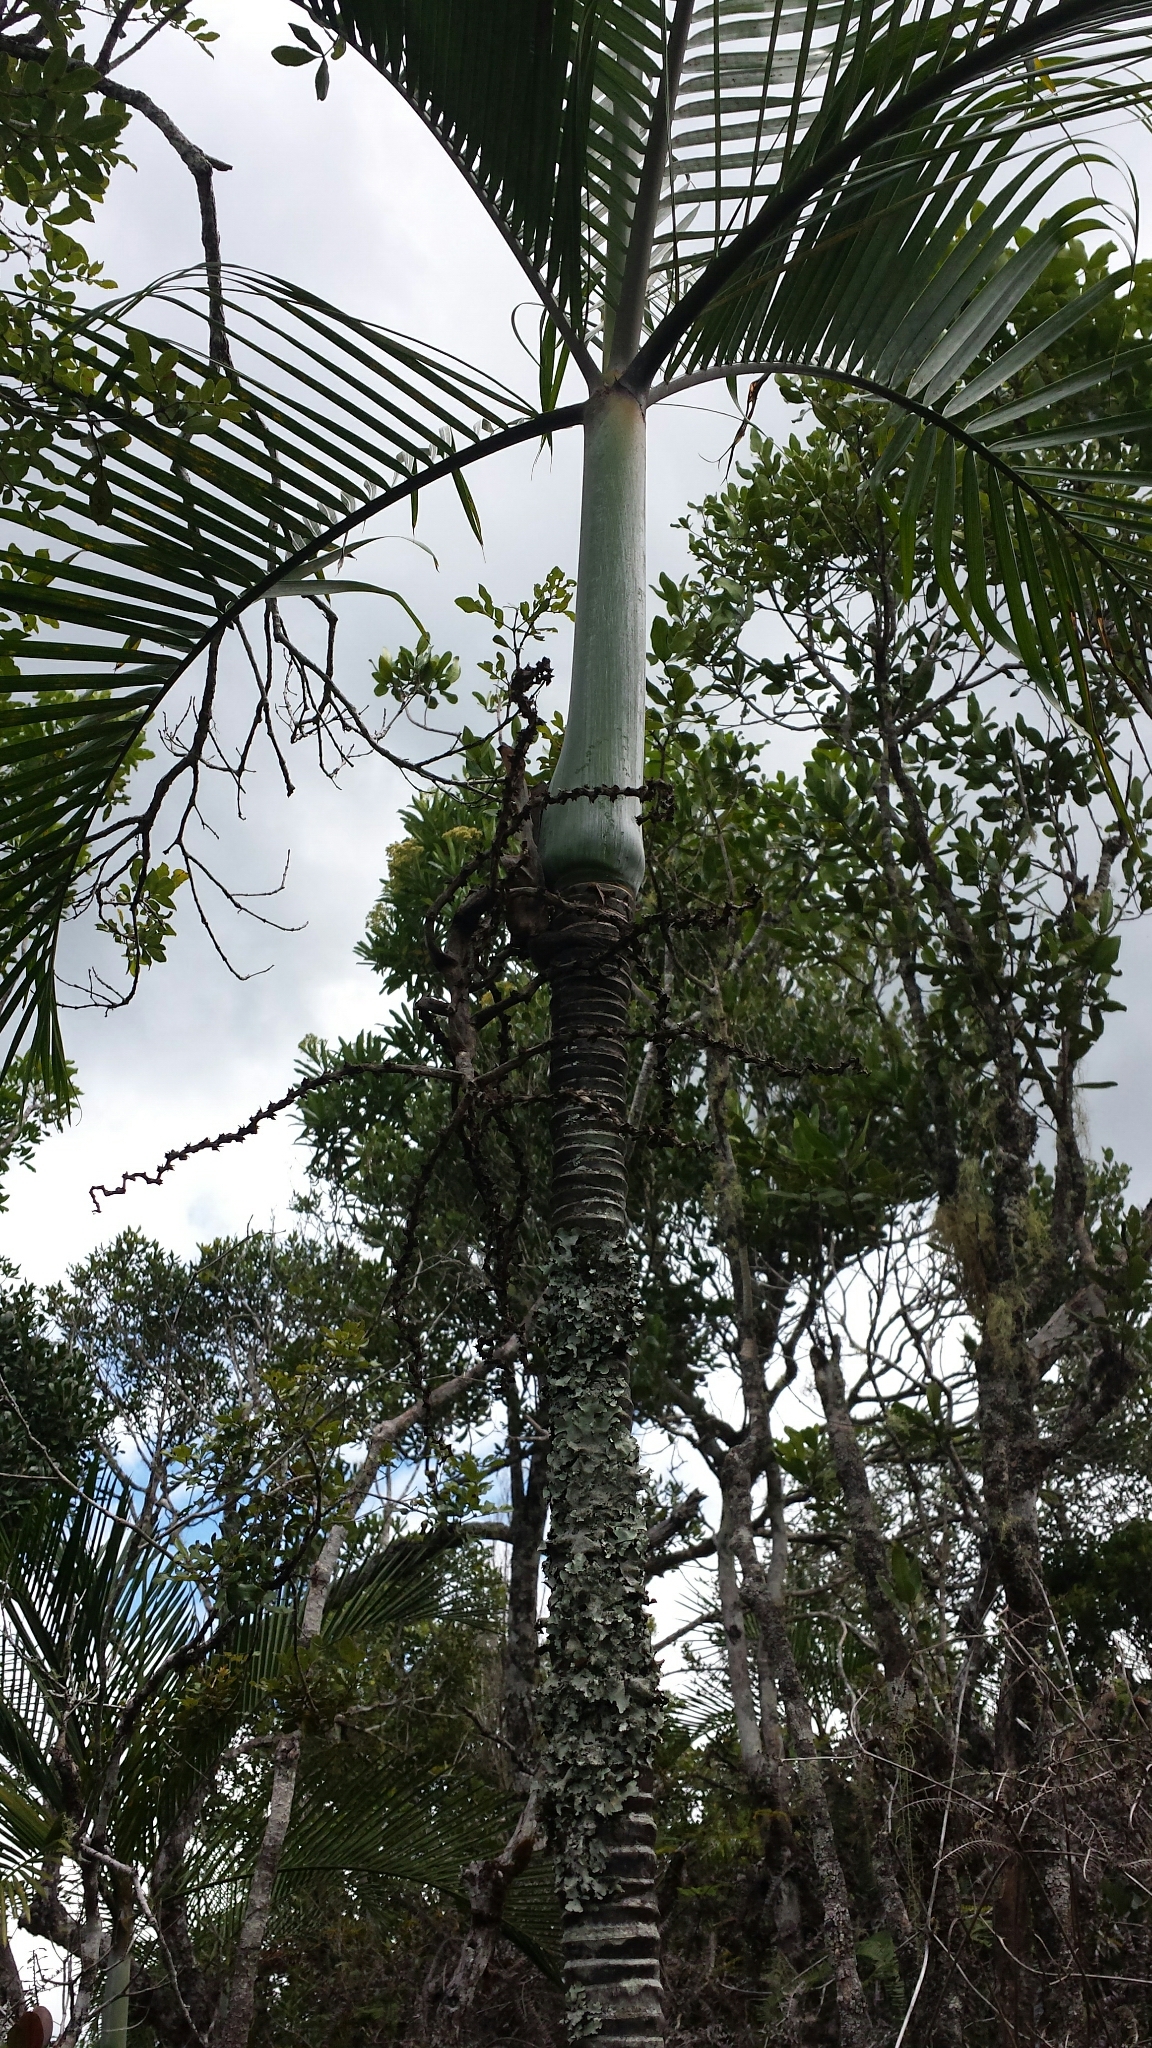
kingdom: Plantae
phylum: Tracheophyta
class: Liliopsida
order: Arecales
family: Arecaceae
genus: Dypsis
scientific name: Dypsis baronii
